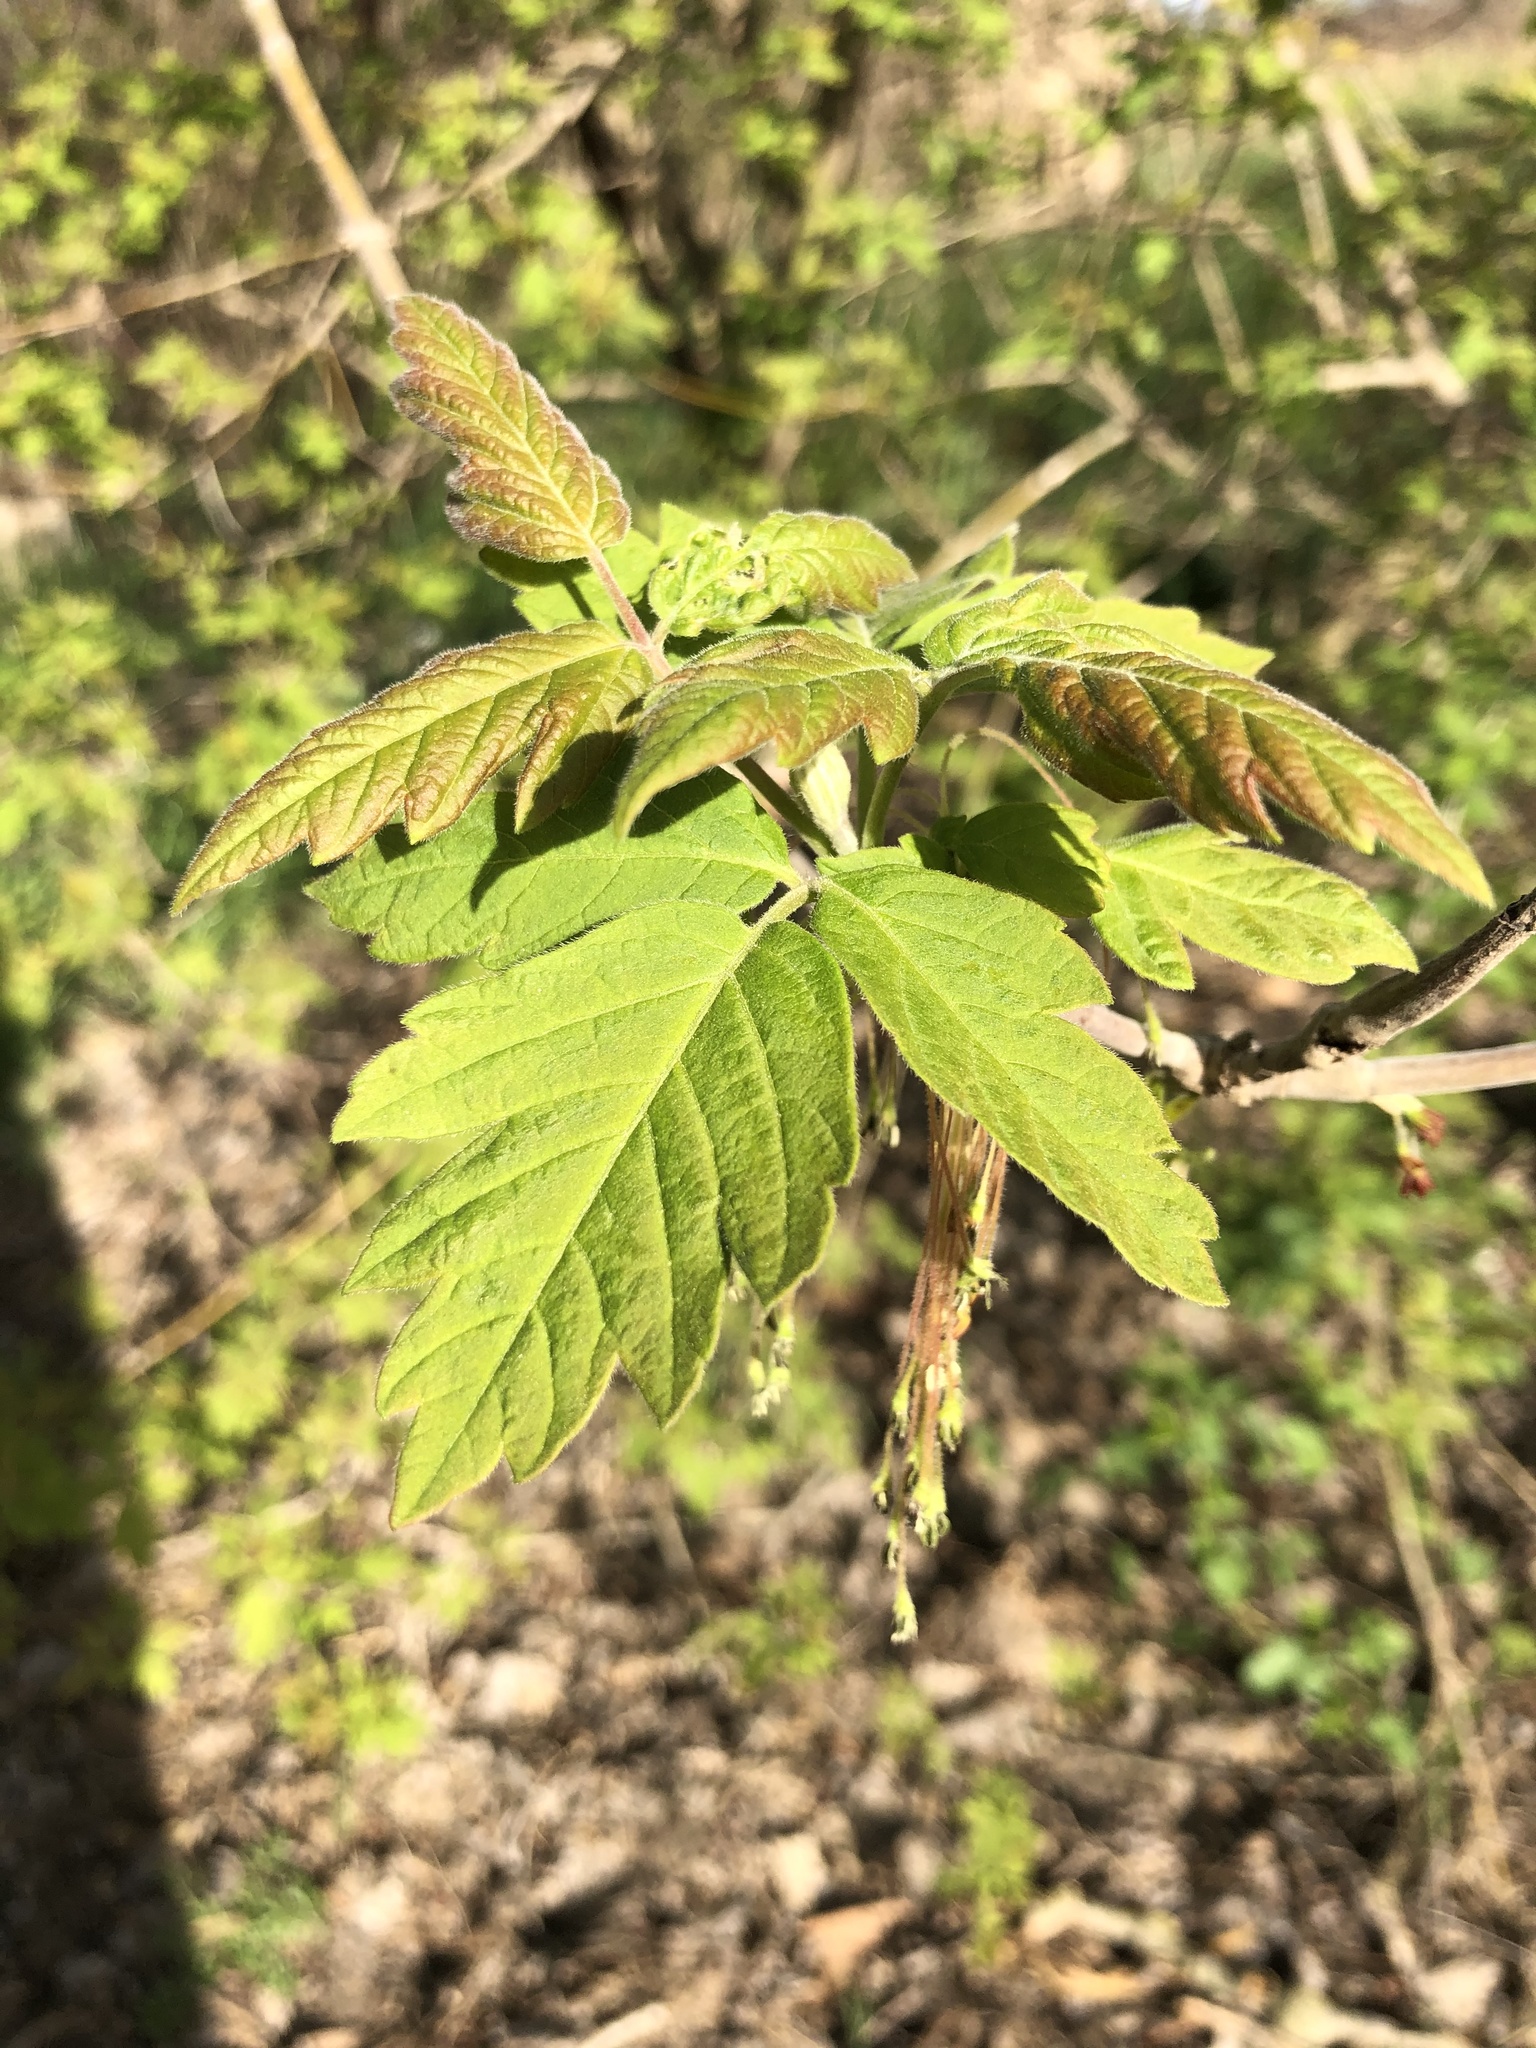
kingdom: Plantae
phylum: Tracheophyta
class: Magnoliopsida
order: Sapindales
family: Sapindaceae
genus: Acer
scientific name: Acer negundo
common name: Ashleaf maple
